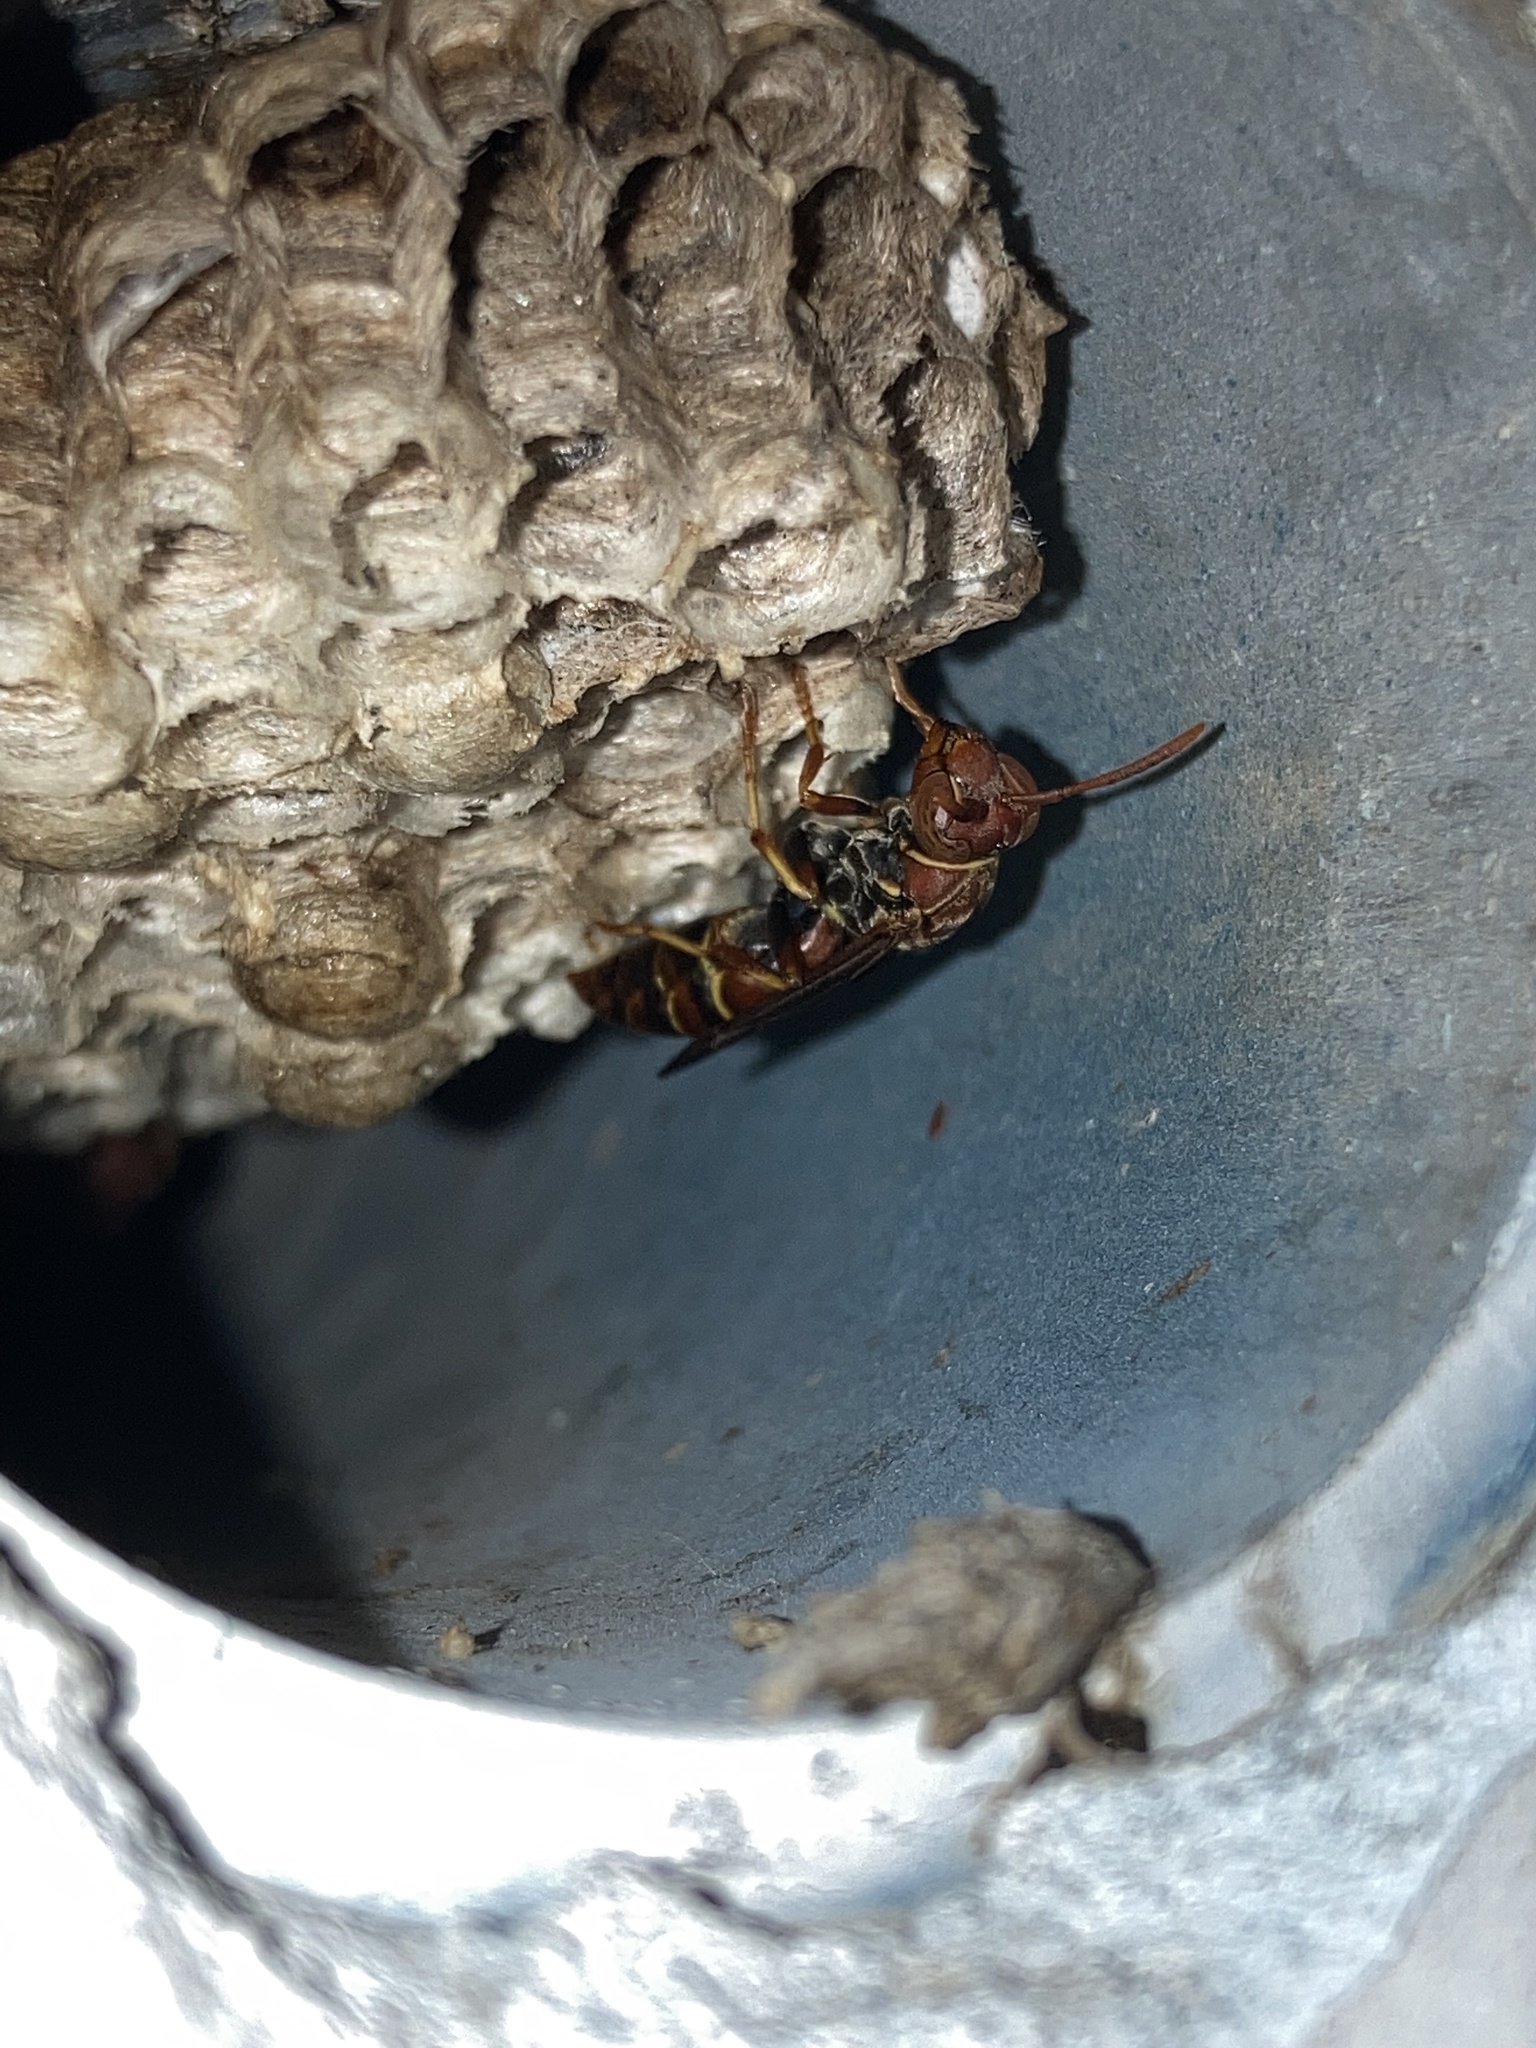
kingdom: Animalia
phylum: Arthropoda
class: Insecta
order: Hymenoptera
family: Eumenidae
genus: Polistes
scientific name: Polistes dorsalis
